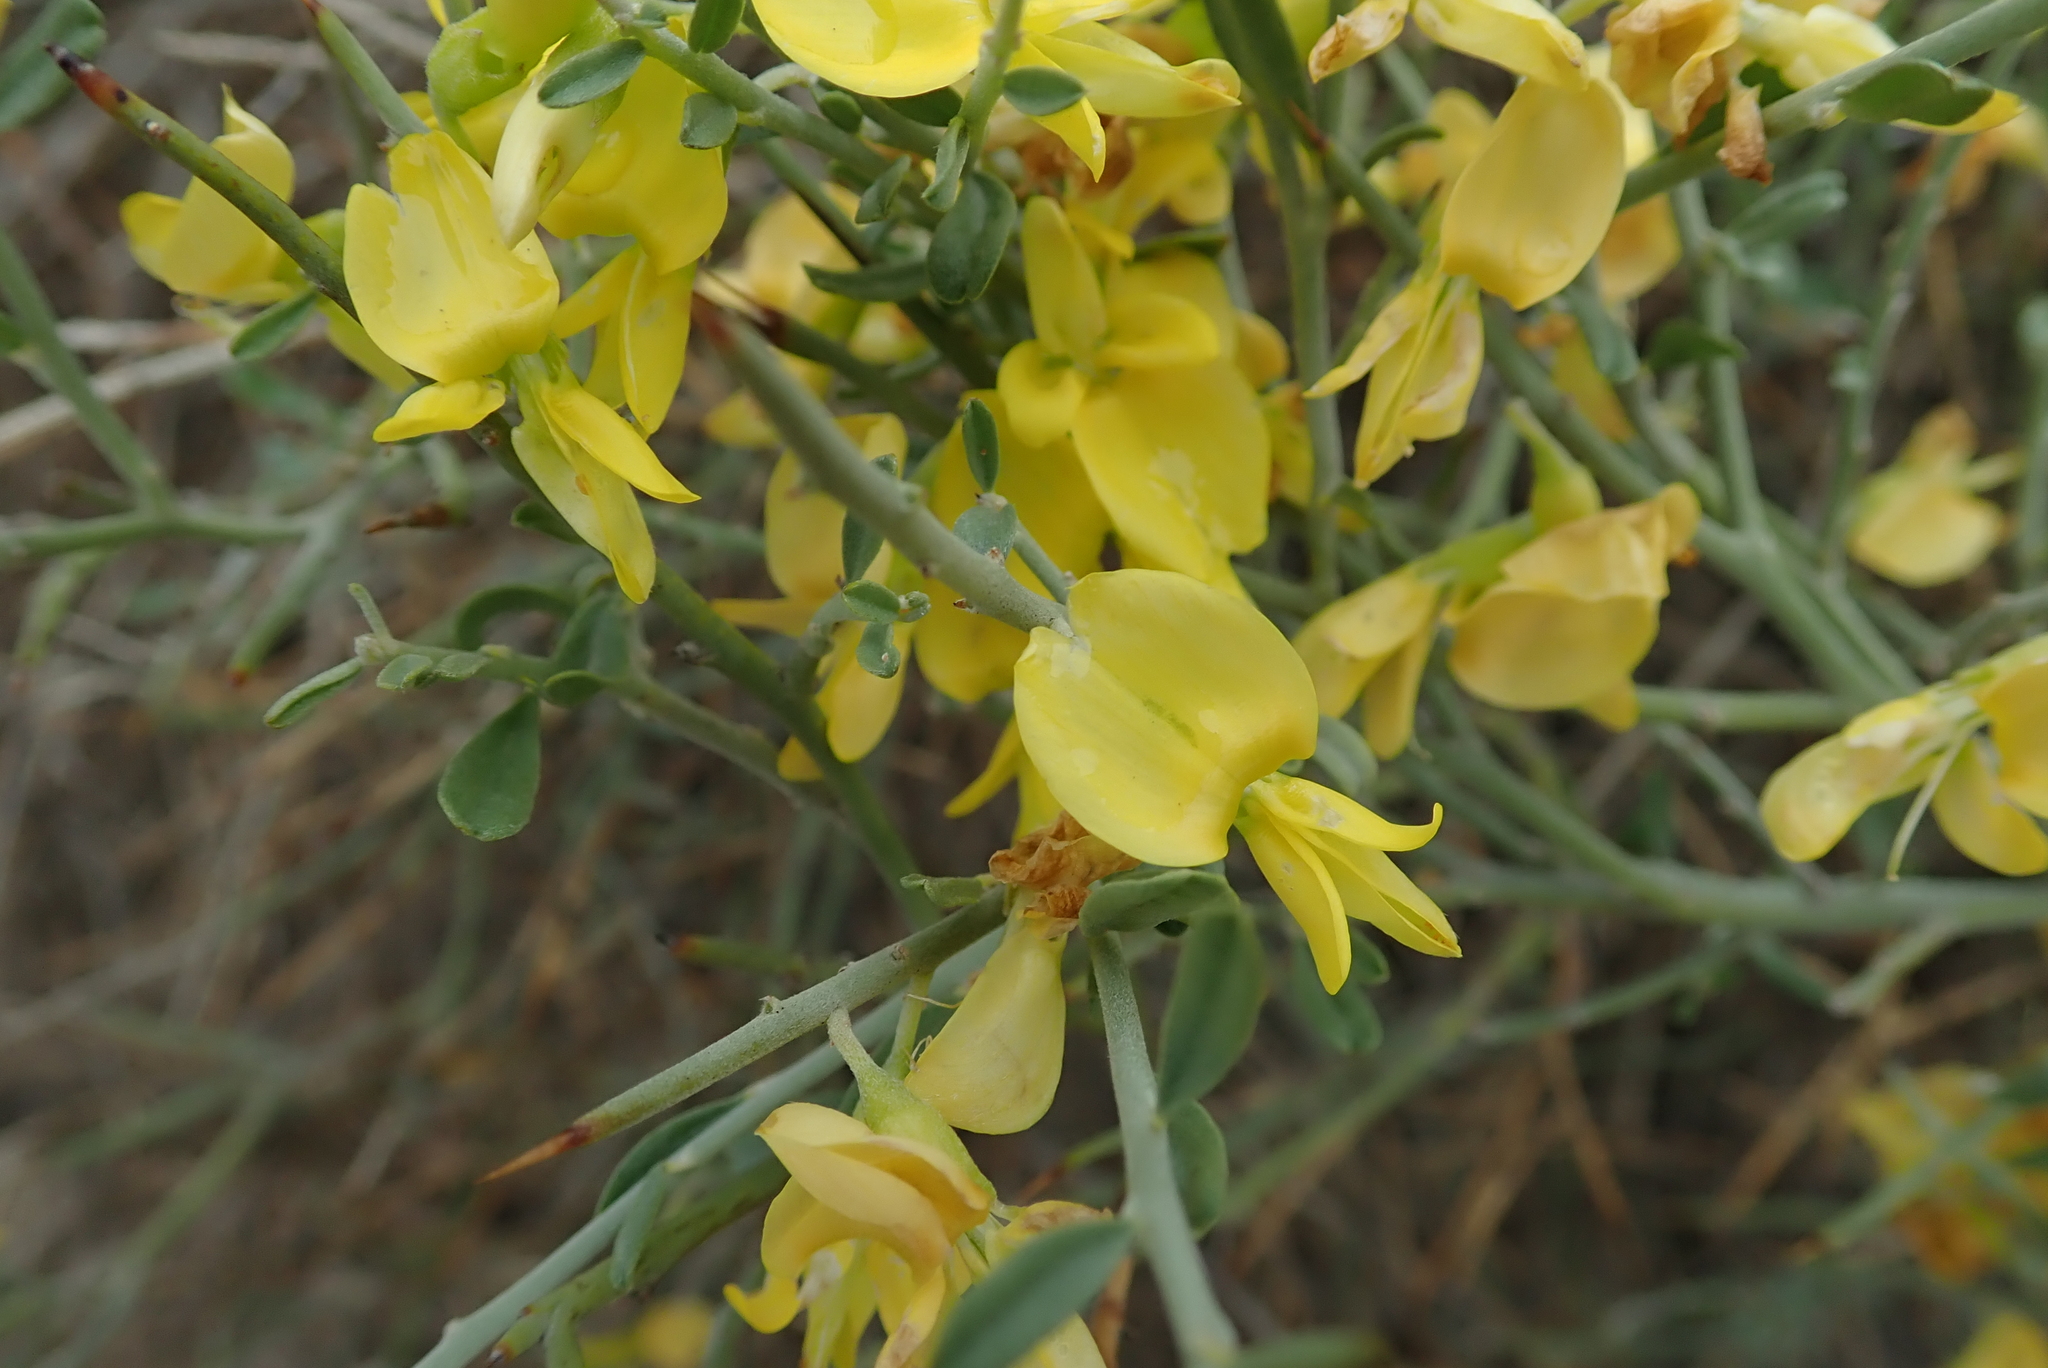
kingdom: Plantae
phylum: Tracheophyta
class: Magnoliopsida
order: Fabales
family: Fabaceae
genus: Calobota
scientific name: Calobota pungens
